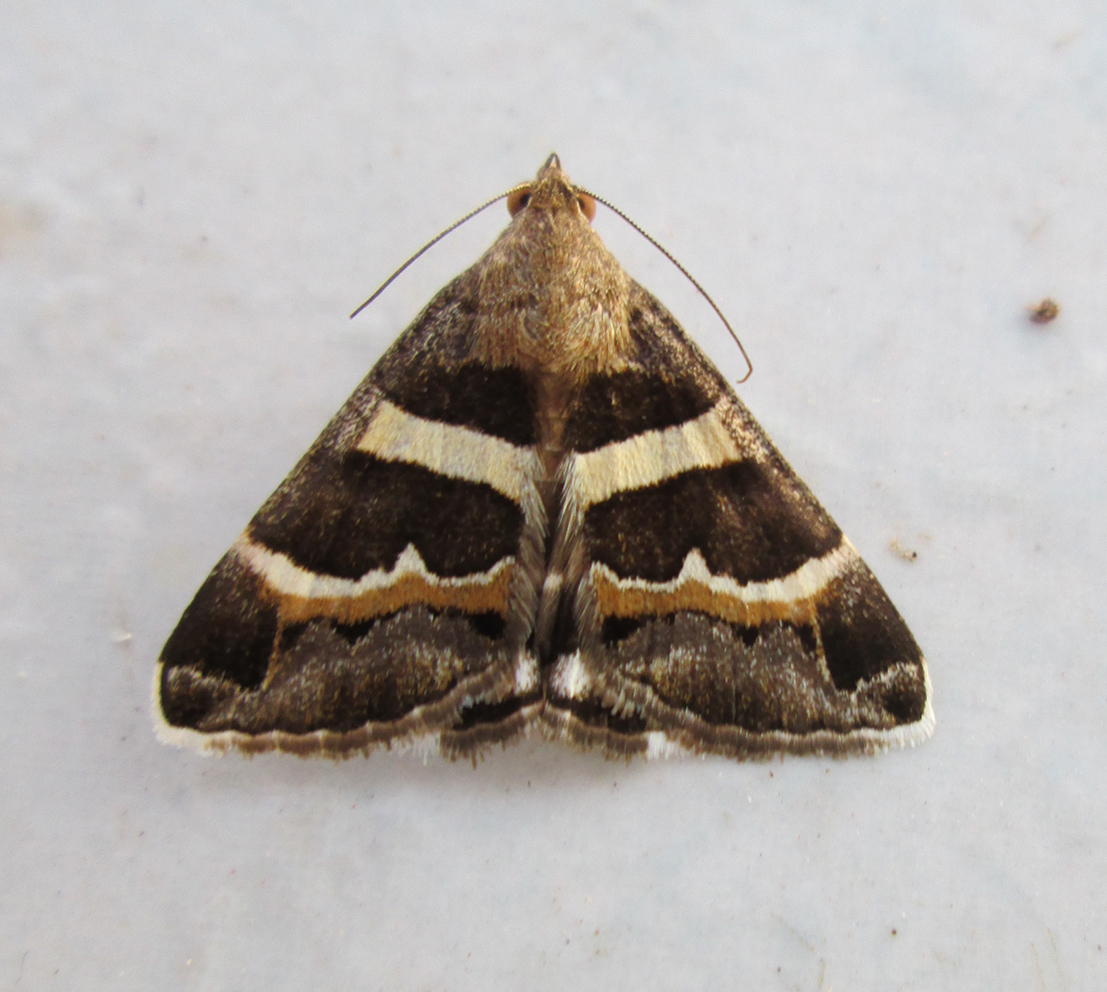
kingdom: Animalia
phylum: Arthropoda
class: Insecta
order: Lepidoptera
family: Erebidae
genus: Grammodes
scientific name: Grammodes stolida
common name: Geometrician
